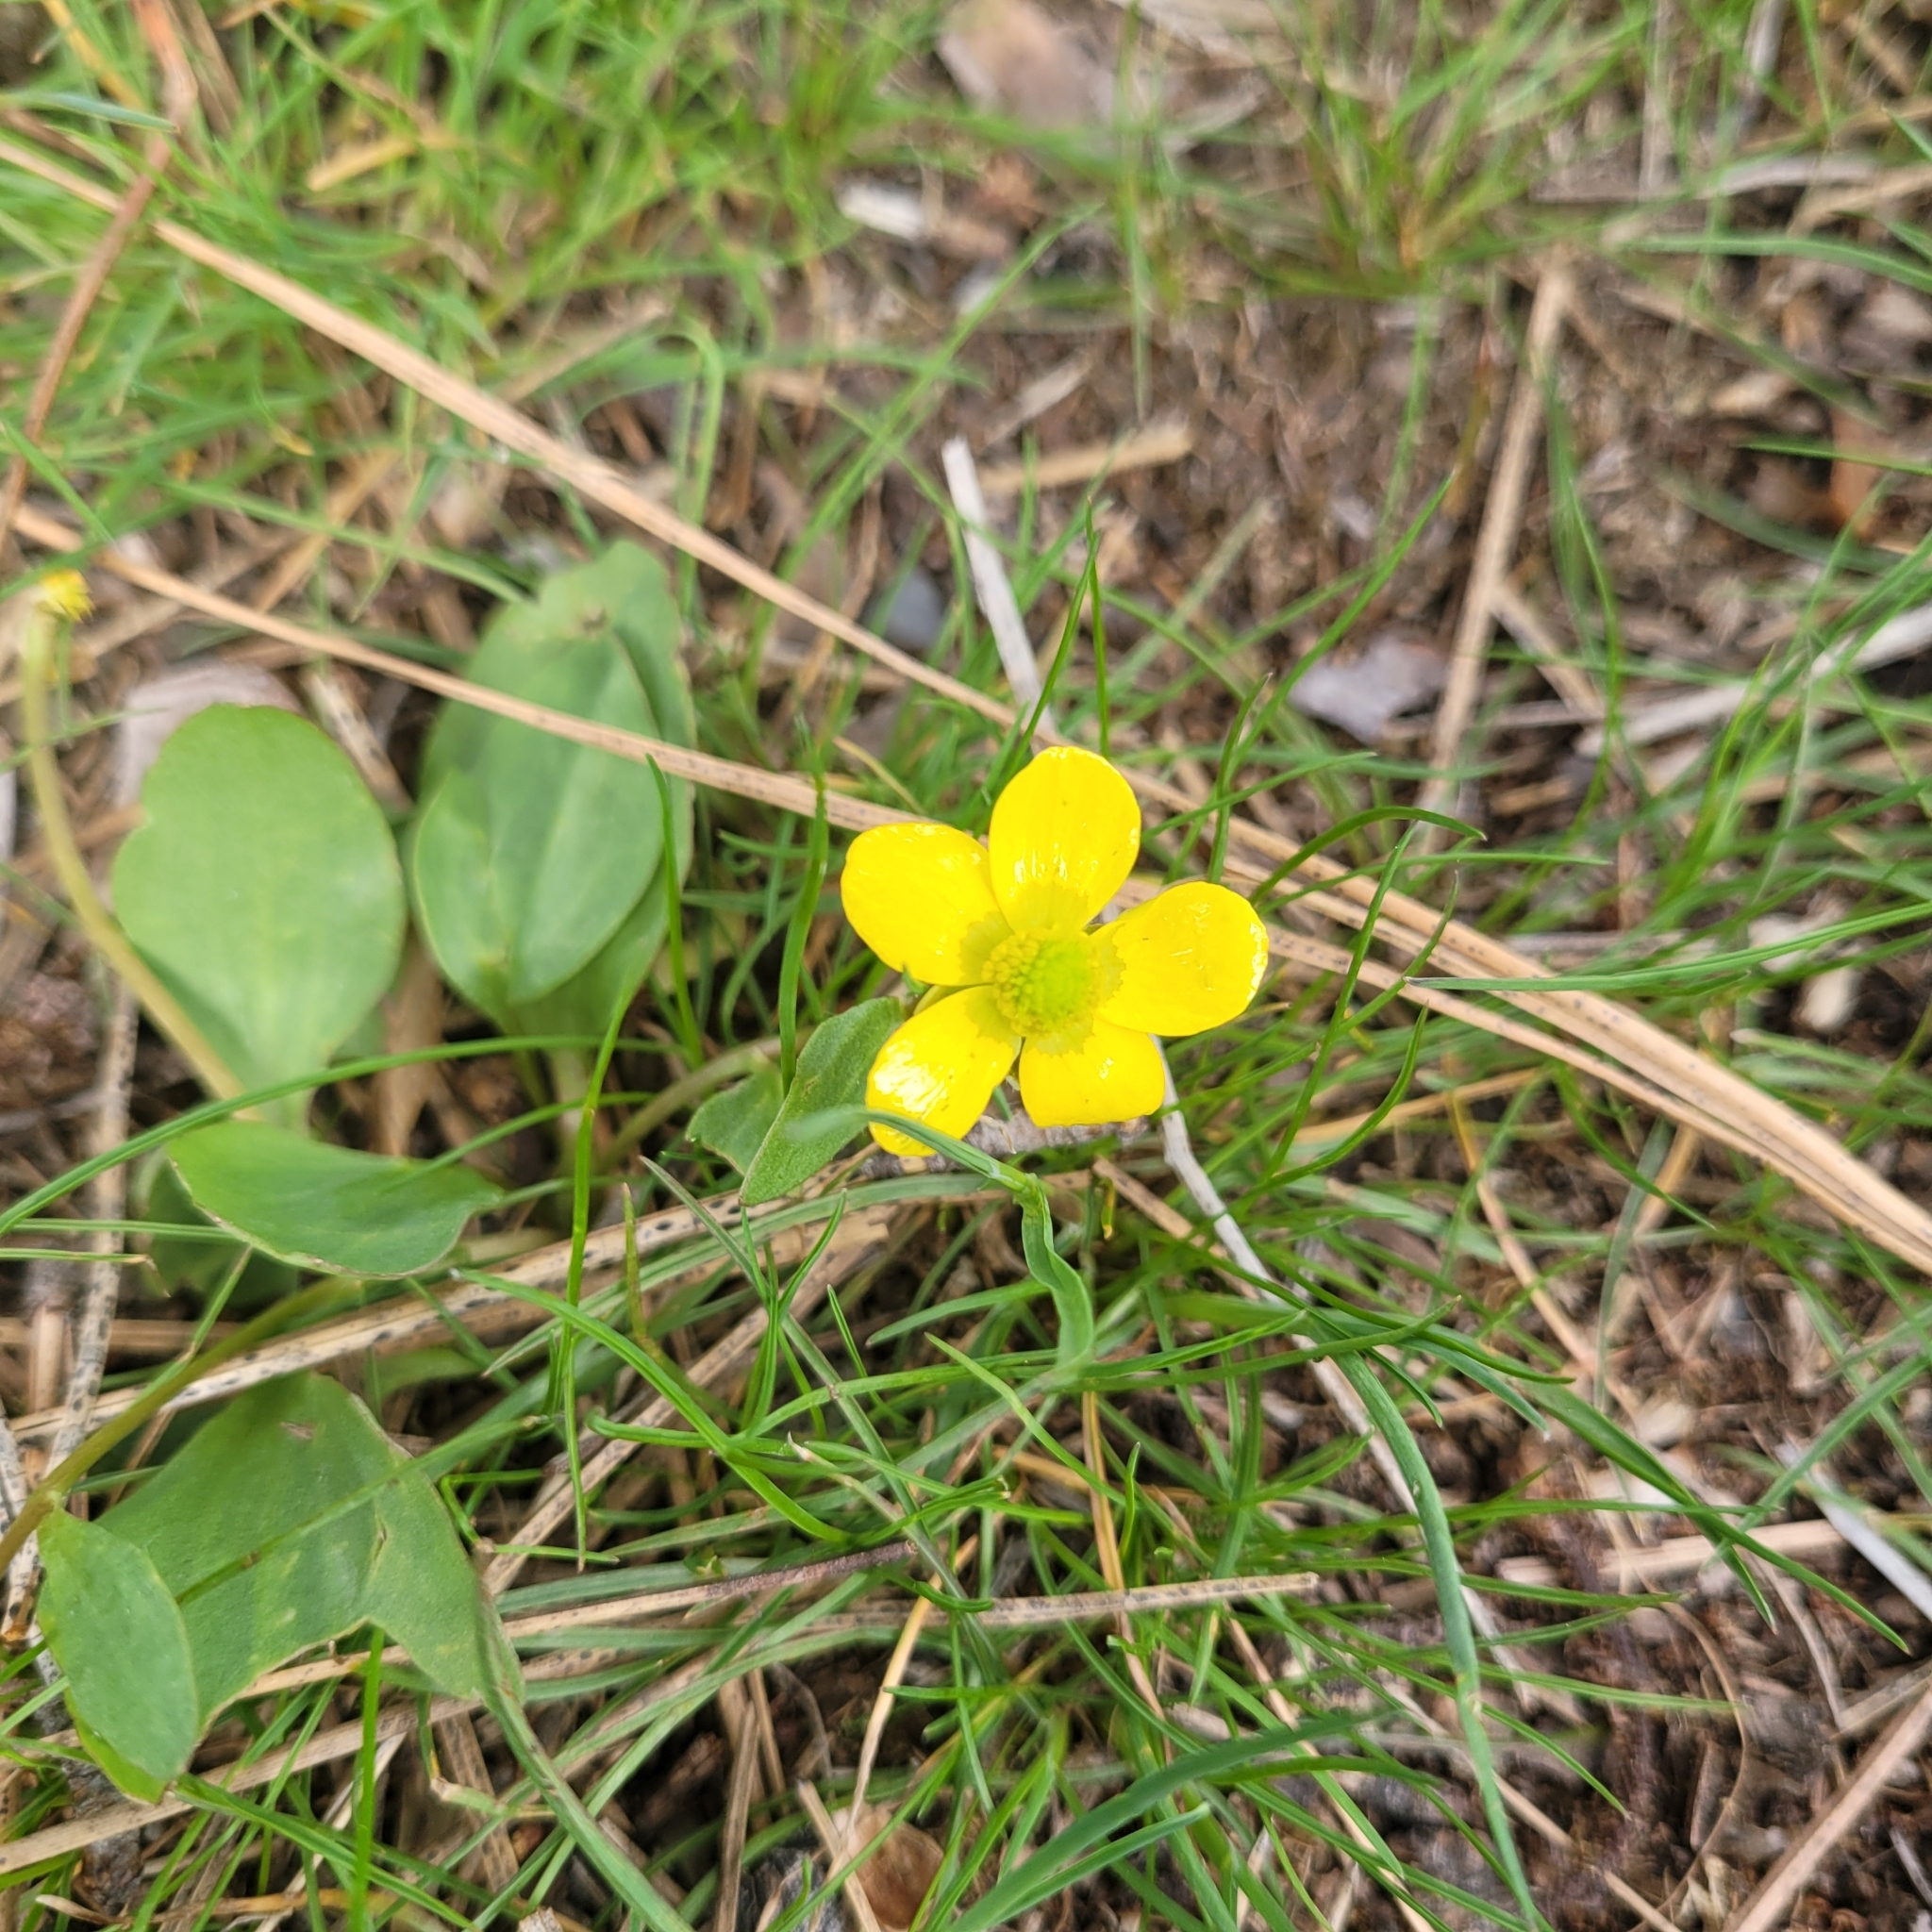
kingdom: Plantae
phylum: Tracheophyta
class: Magnoliopsida
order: Ranunculales
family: Ranunculaceae
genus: Ranunculus
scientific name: Ranunculus glaberrimus
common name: Sagebrush buttercup
